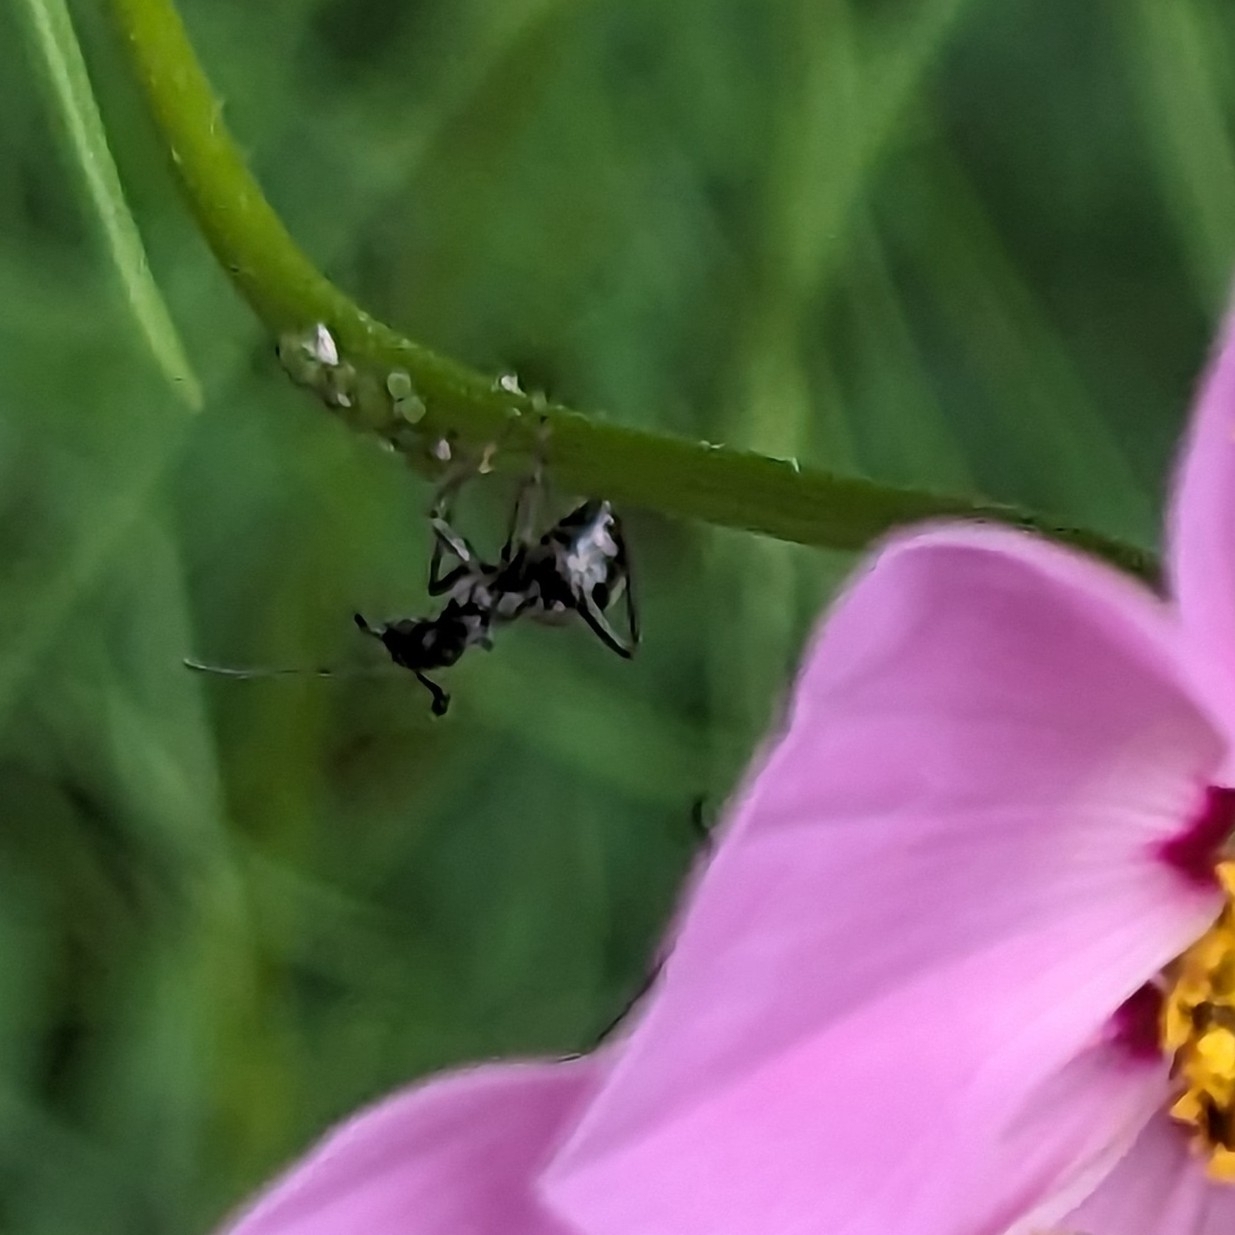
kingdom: Animalia
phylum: Arthropoda
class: Insecta
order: Hymenoptera
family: Formicidae
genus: Formica
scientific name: Formica
